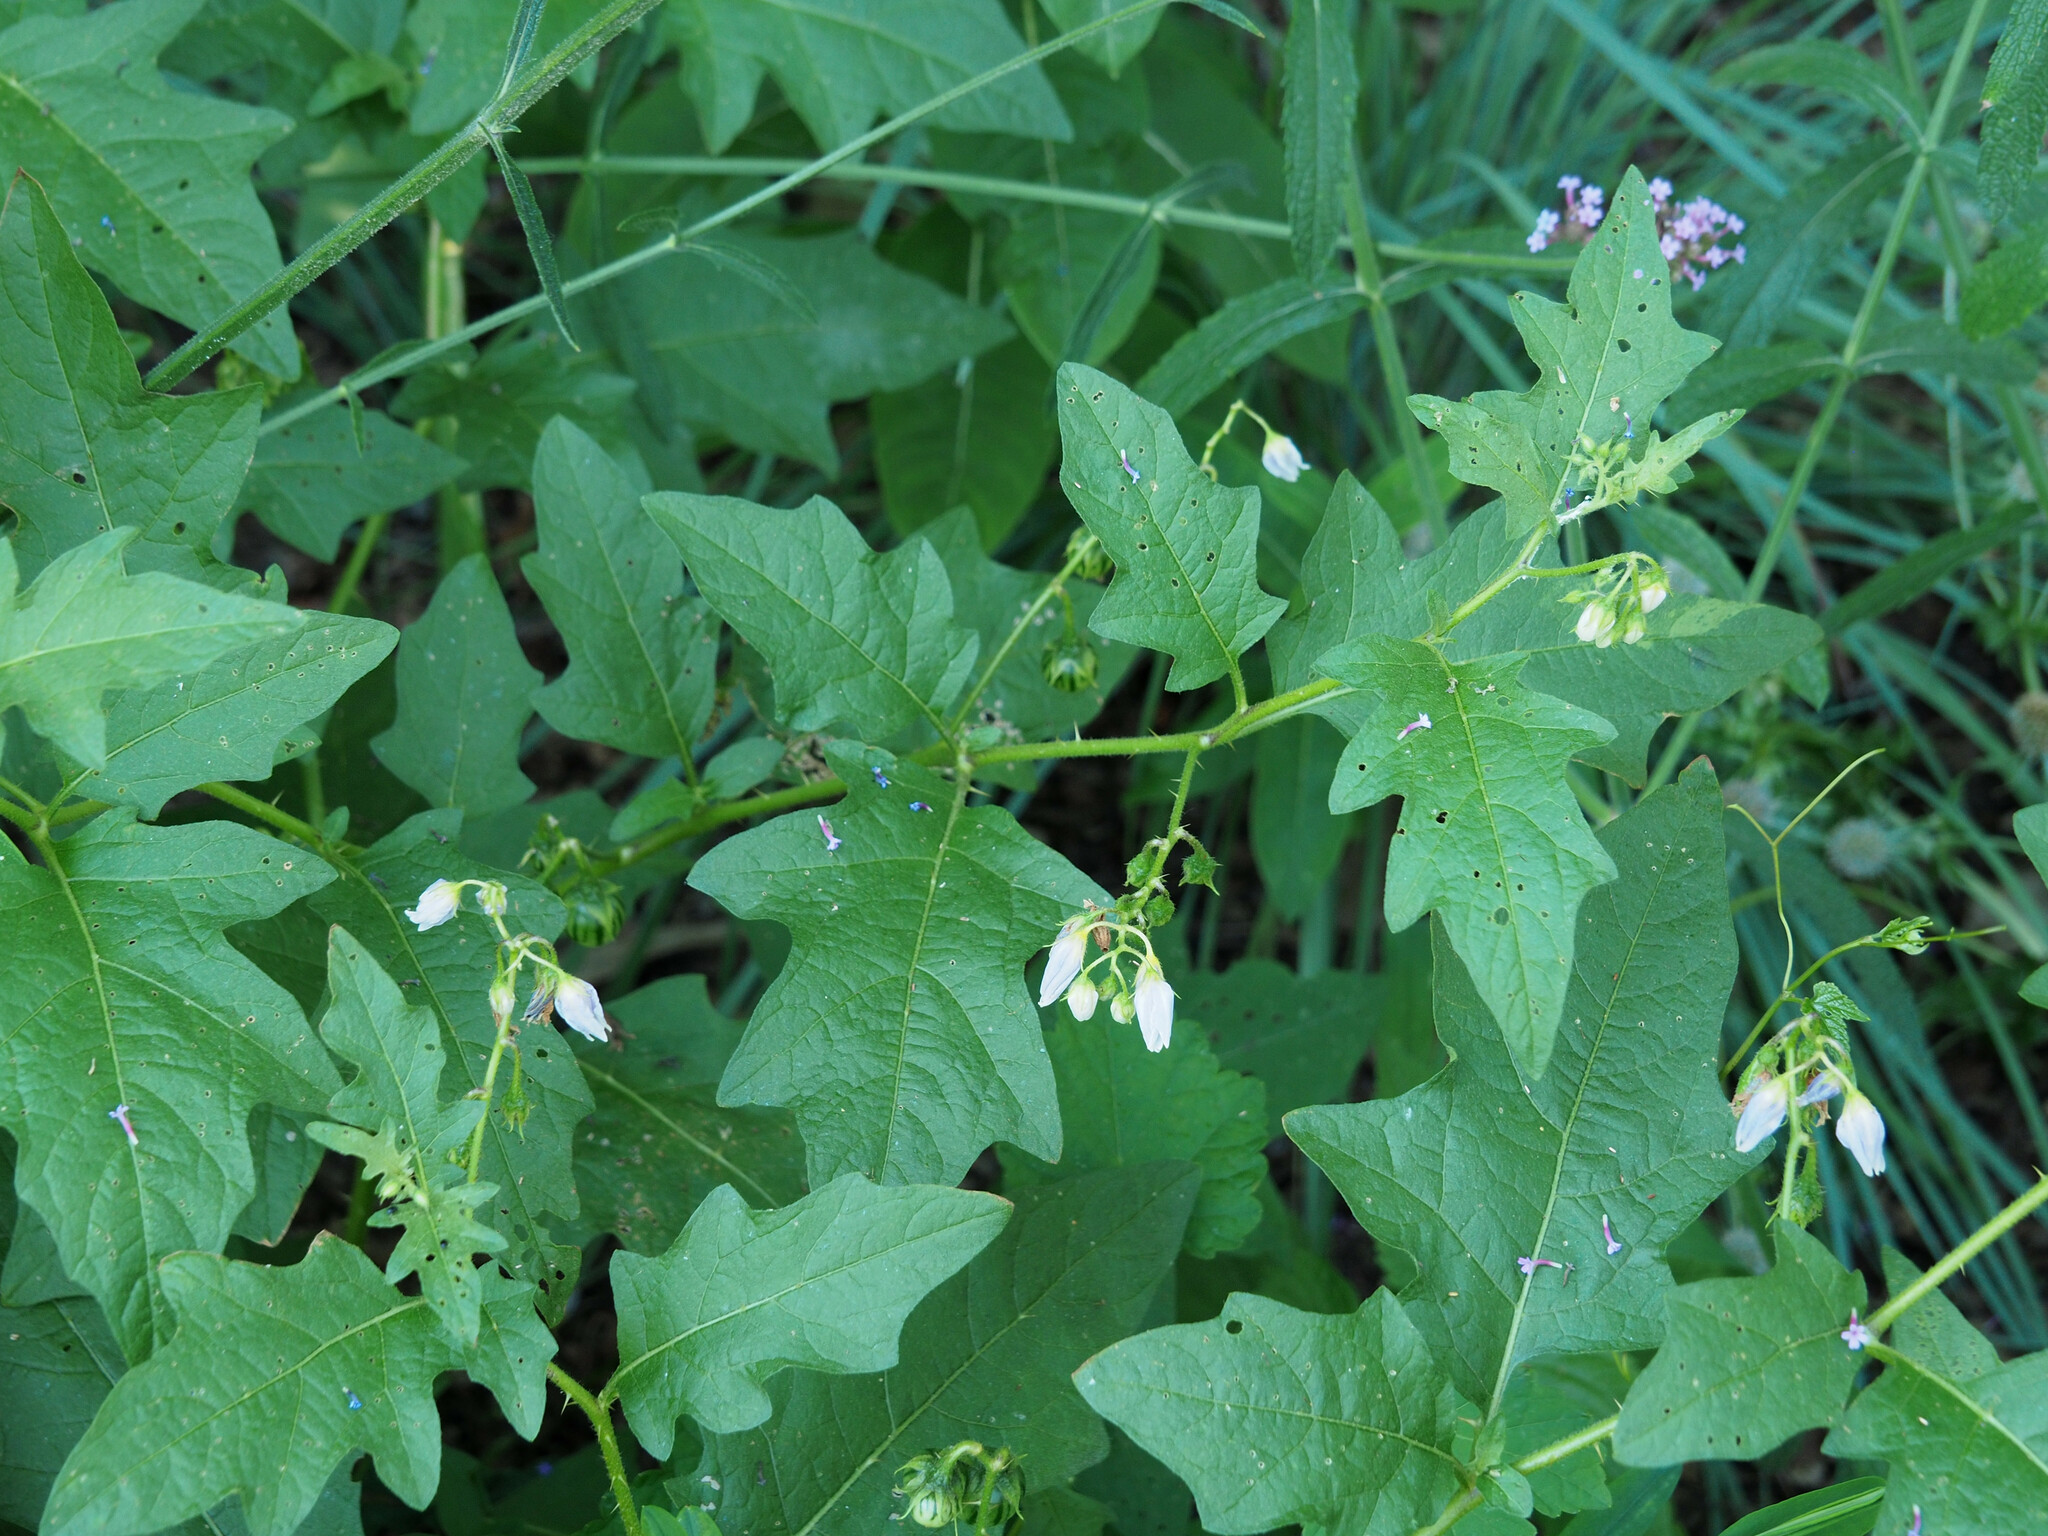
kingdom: Plantae
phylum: Tracheophyta
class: Magnoliopsida
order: Solanales
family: Solanaceae
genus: Solanum
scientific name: Solanum carolinense
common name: Horse-nettle
